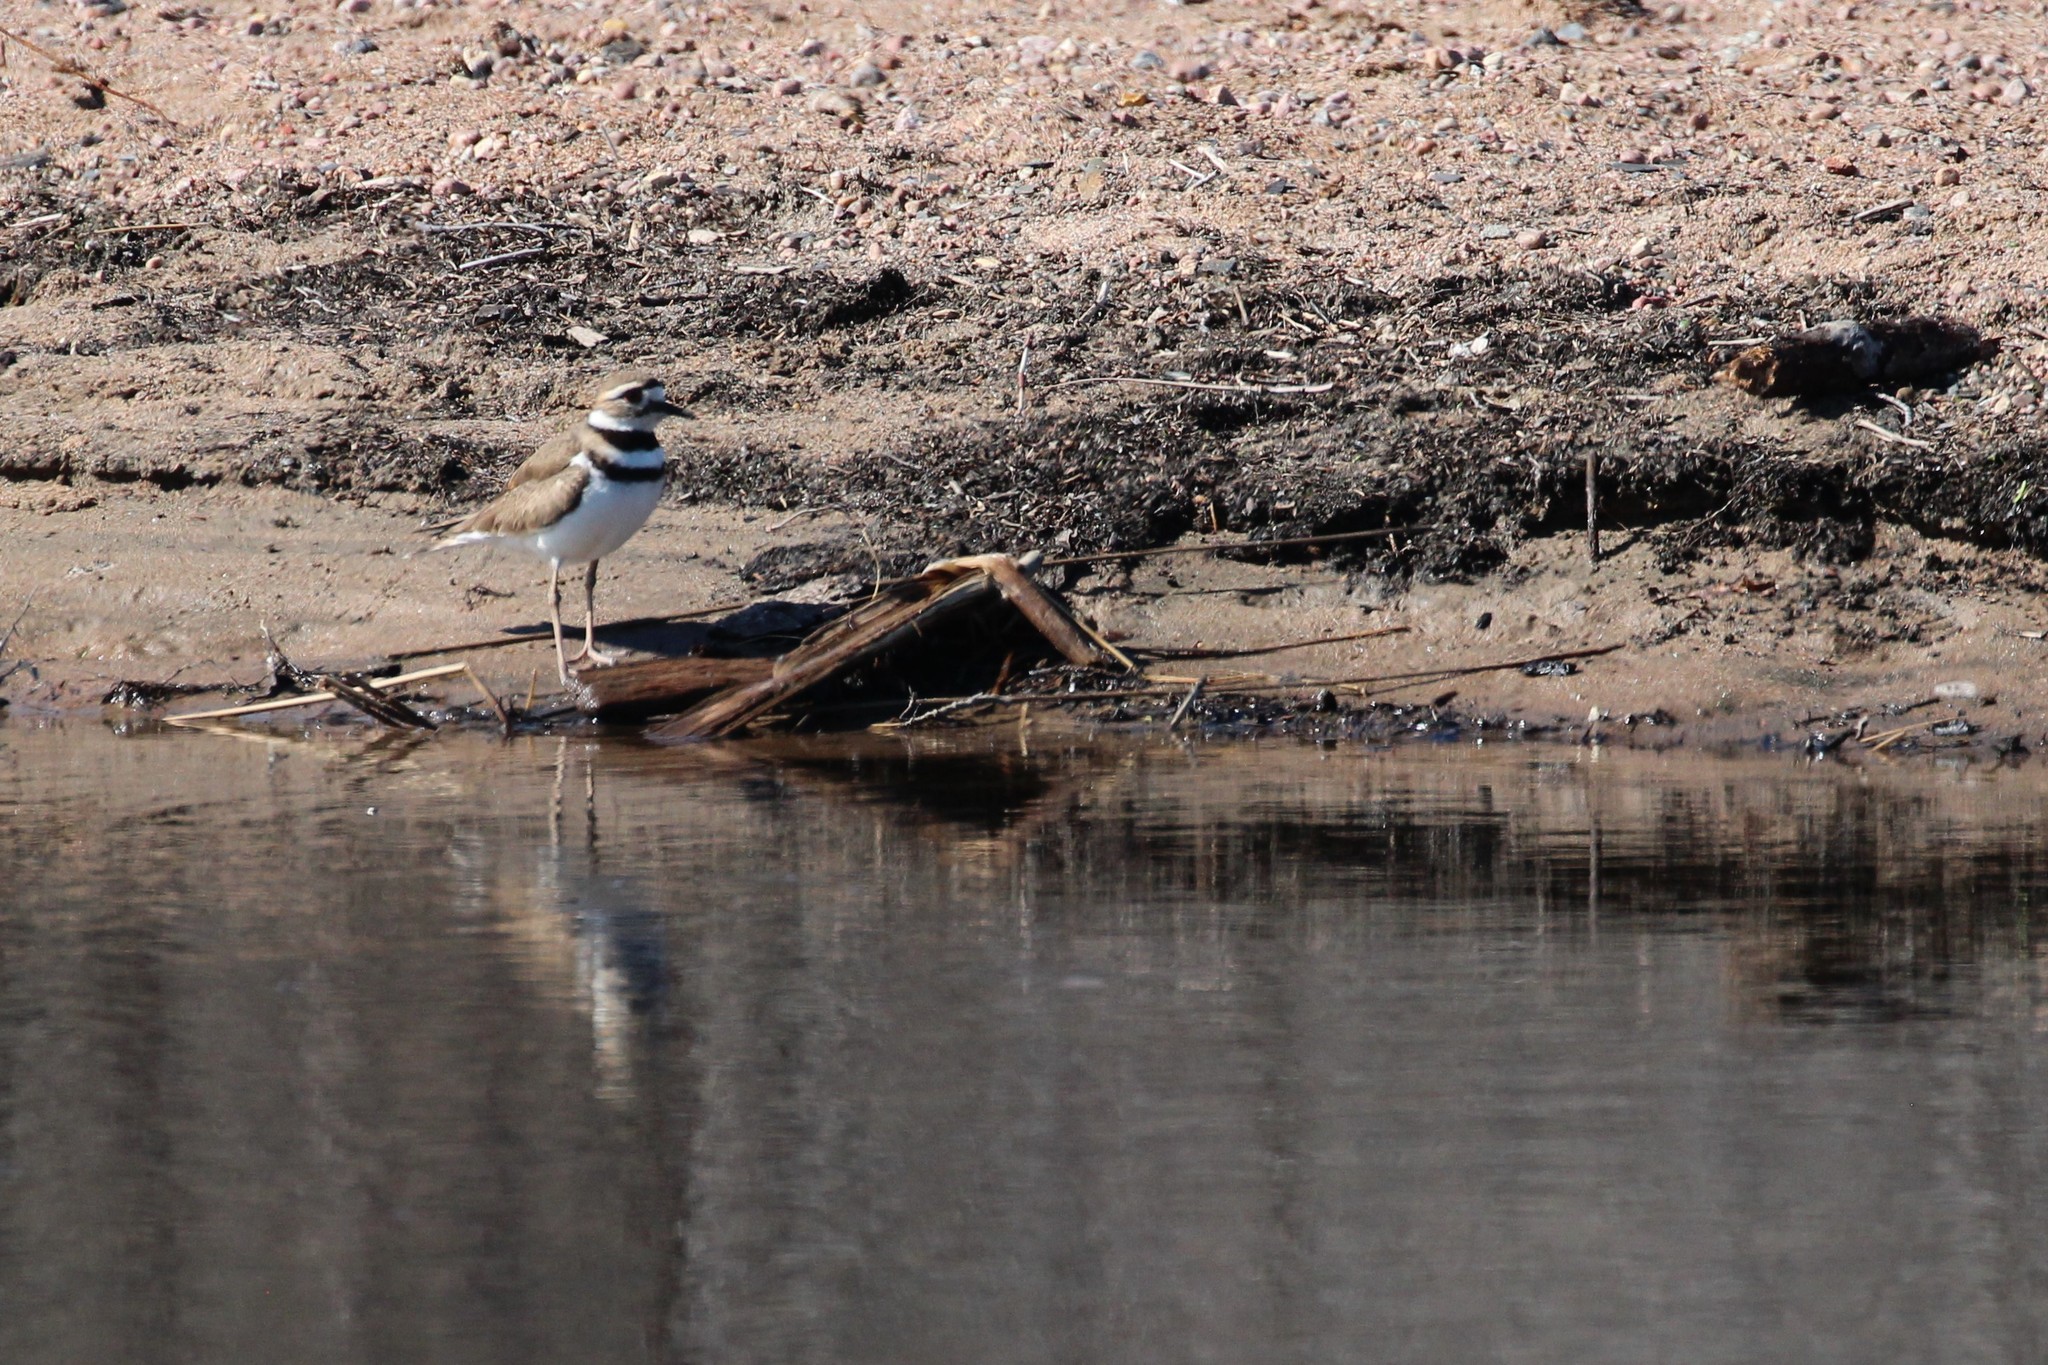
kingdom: Animalia
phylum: Chordata
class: Aves
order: Charadriiformes
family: Charadriidae
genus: Charadrius
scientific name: Charadrius vociferus
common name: Killdeer
